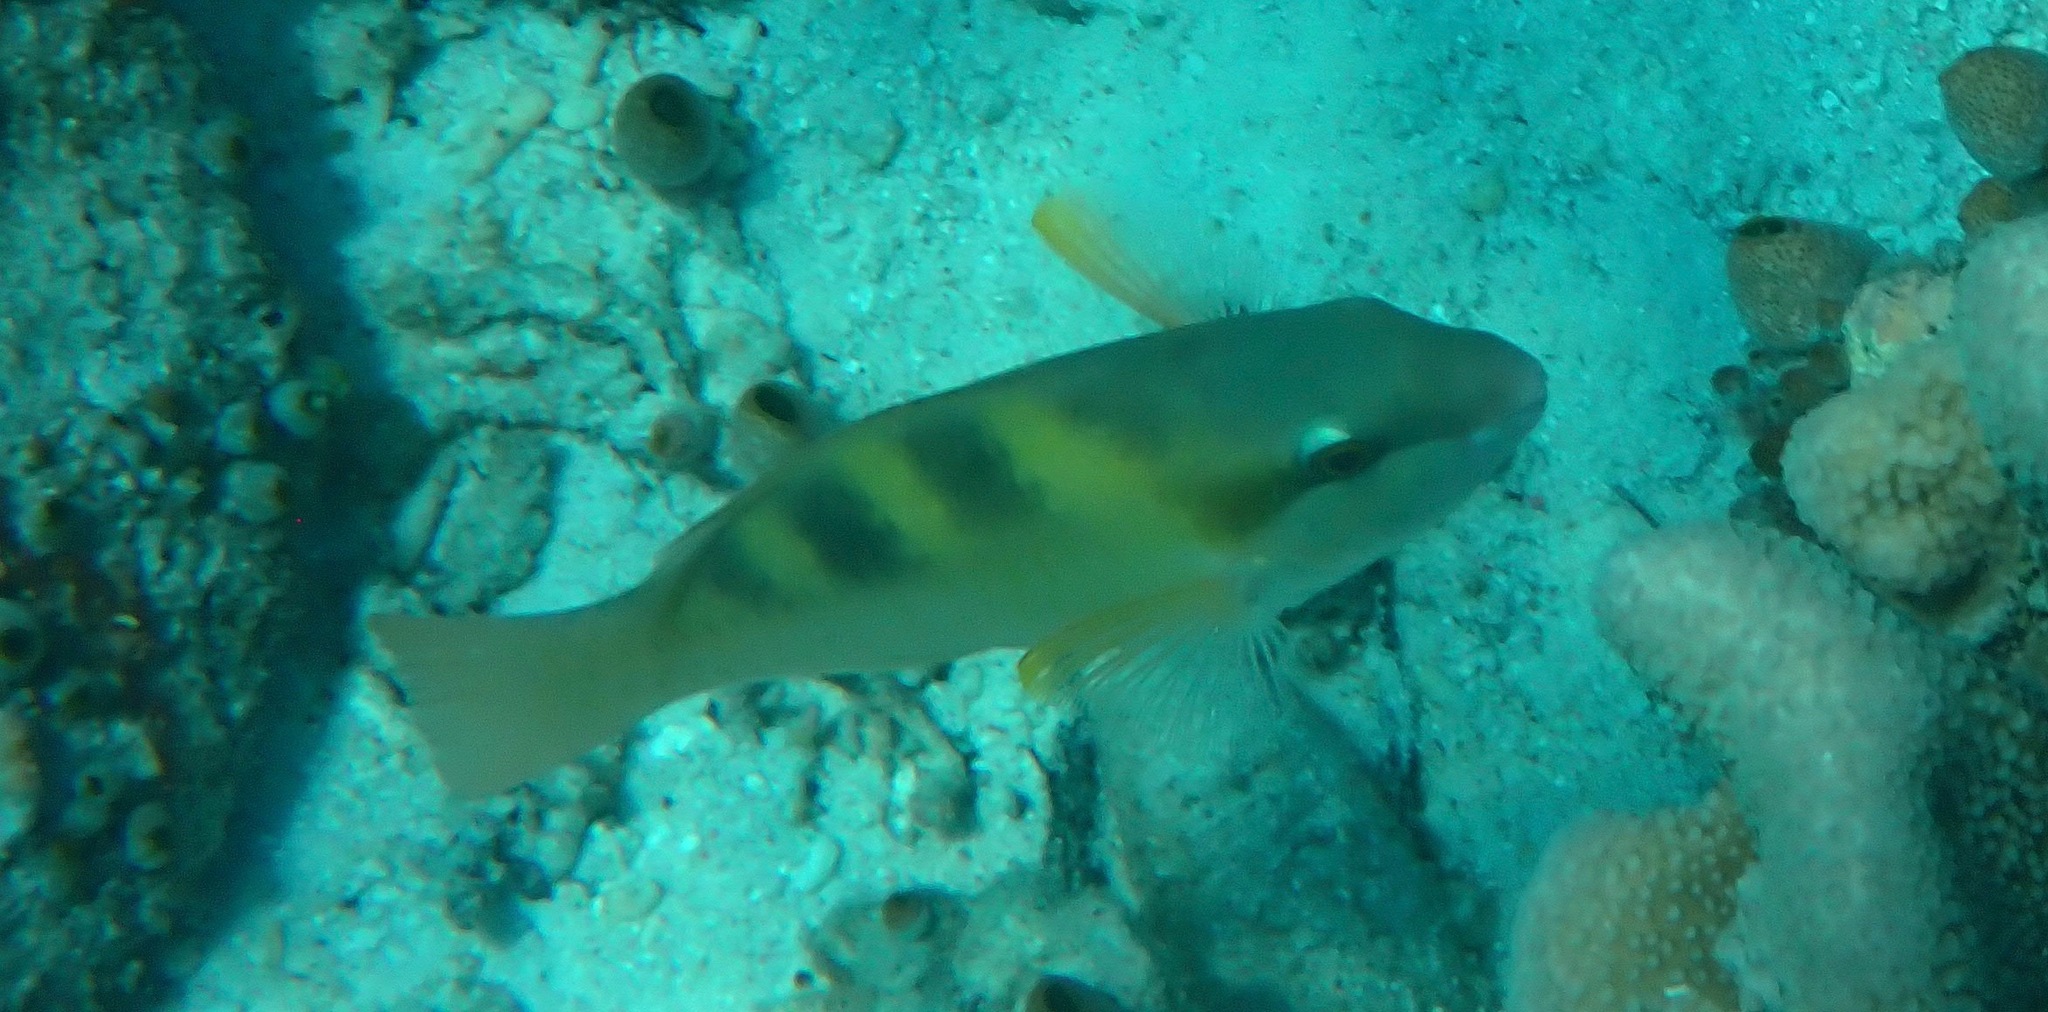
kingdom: Animalia
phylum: Chordata
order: Perciformes
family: Scaridae
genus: Scarus
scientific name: Scarus dimidiatus
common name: Yellowbarred parrotfish
